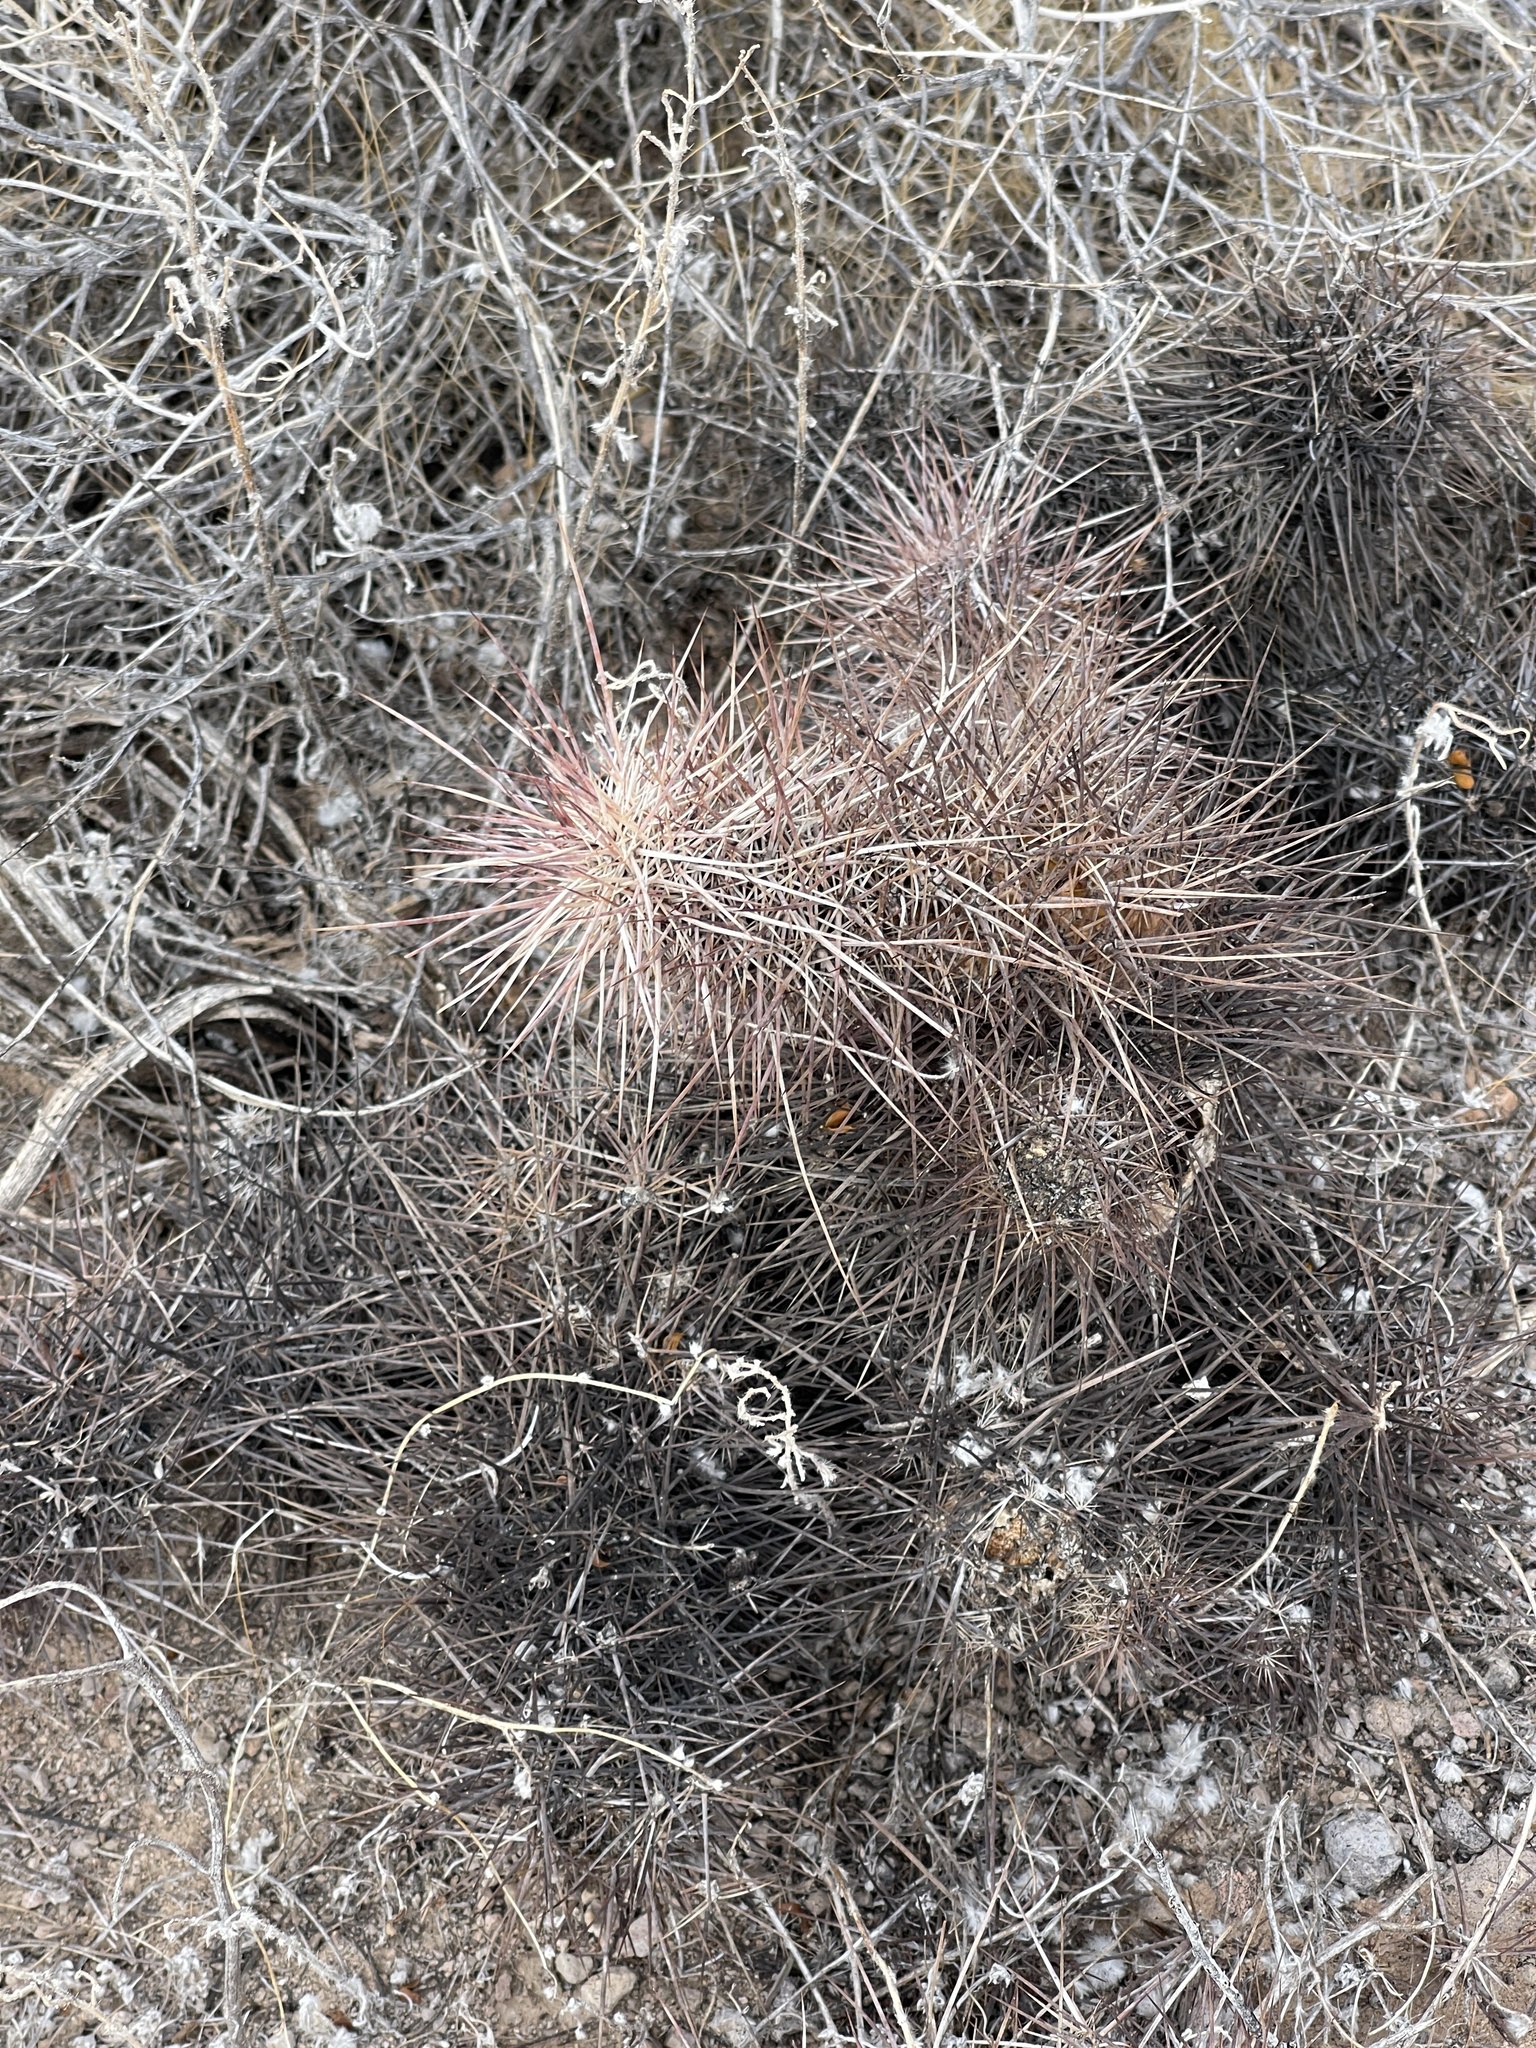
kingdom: Plantae
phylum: Tracheophyta
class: Magnoliopsida
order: Caryophyllales
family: Cactaceae
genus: Echinocereus
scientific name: Echinocereus engelmannii
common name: Engelmann's hedgehog cactus
